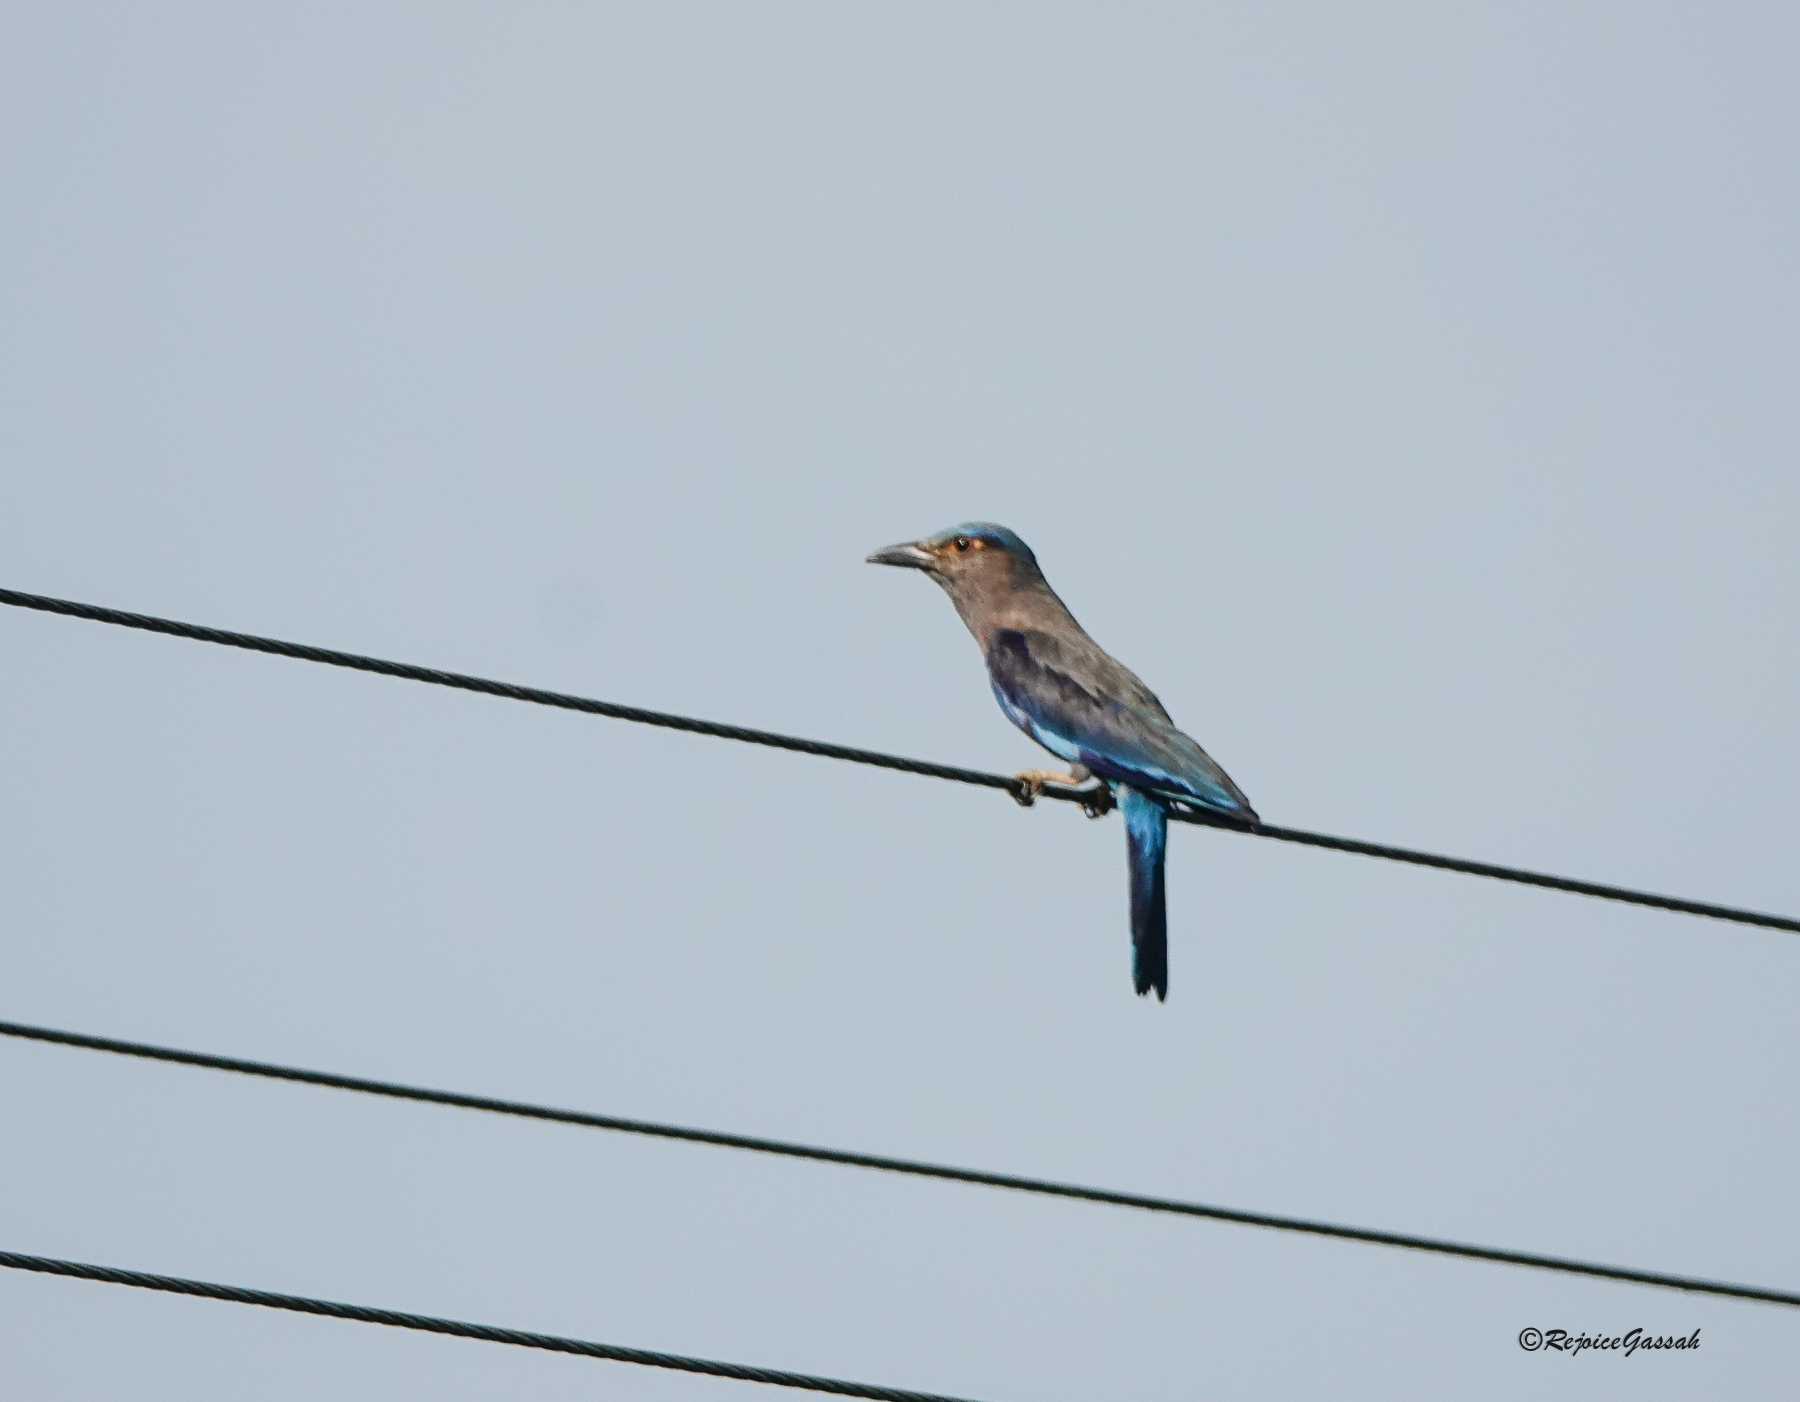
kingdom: Animalia
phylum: Chordata
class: Aves
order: Coraciiformes
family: Coraciidae
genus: Coracias
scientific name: Coracias affinis
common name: Indochinese roller
